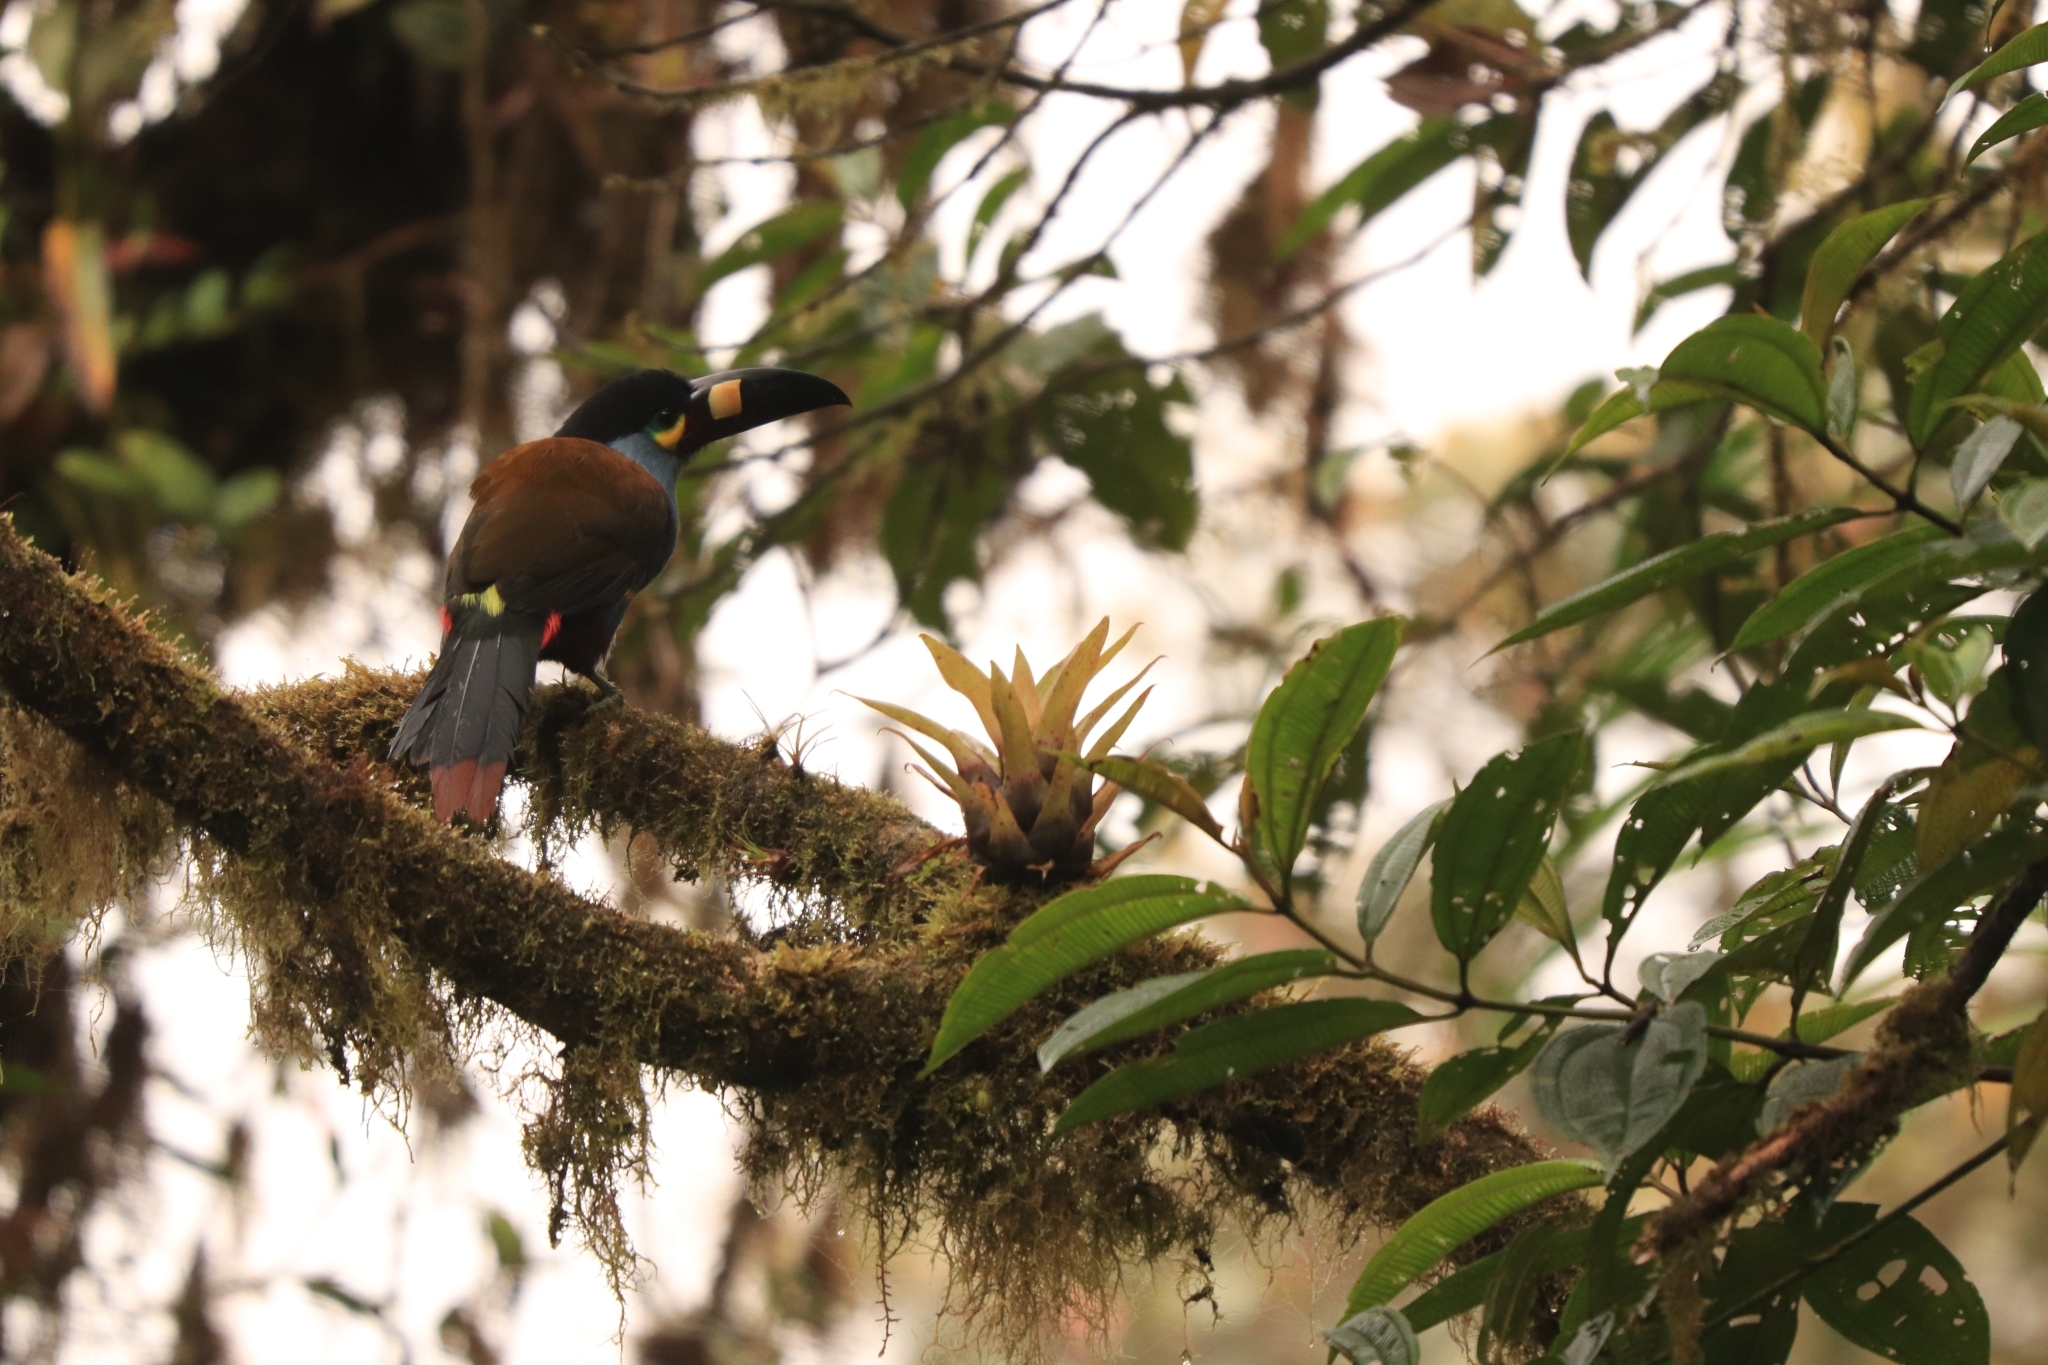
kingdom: Animalia
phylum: Chordata
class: Aves
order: Piciformes
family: Ramphastidae
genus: Andigena
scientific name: Andigena laminirostris
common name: Plate-billed mountain toucan
